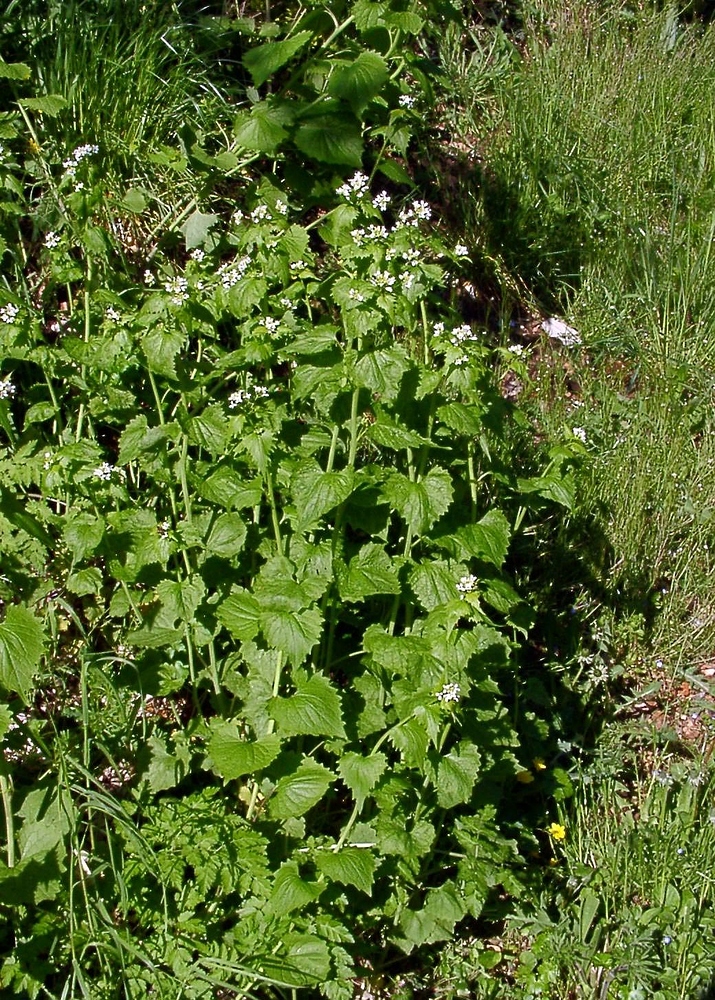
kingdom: Plantae
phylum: Tracheophyta
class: Magnoliopsida
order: Brassicales
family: Brassicaceae
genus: Alliaria
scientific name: Alliaria petiolata
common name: Garlic mustard
